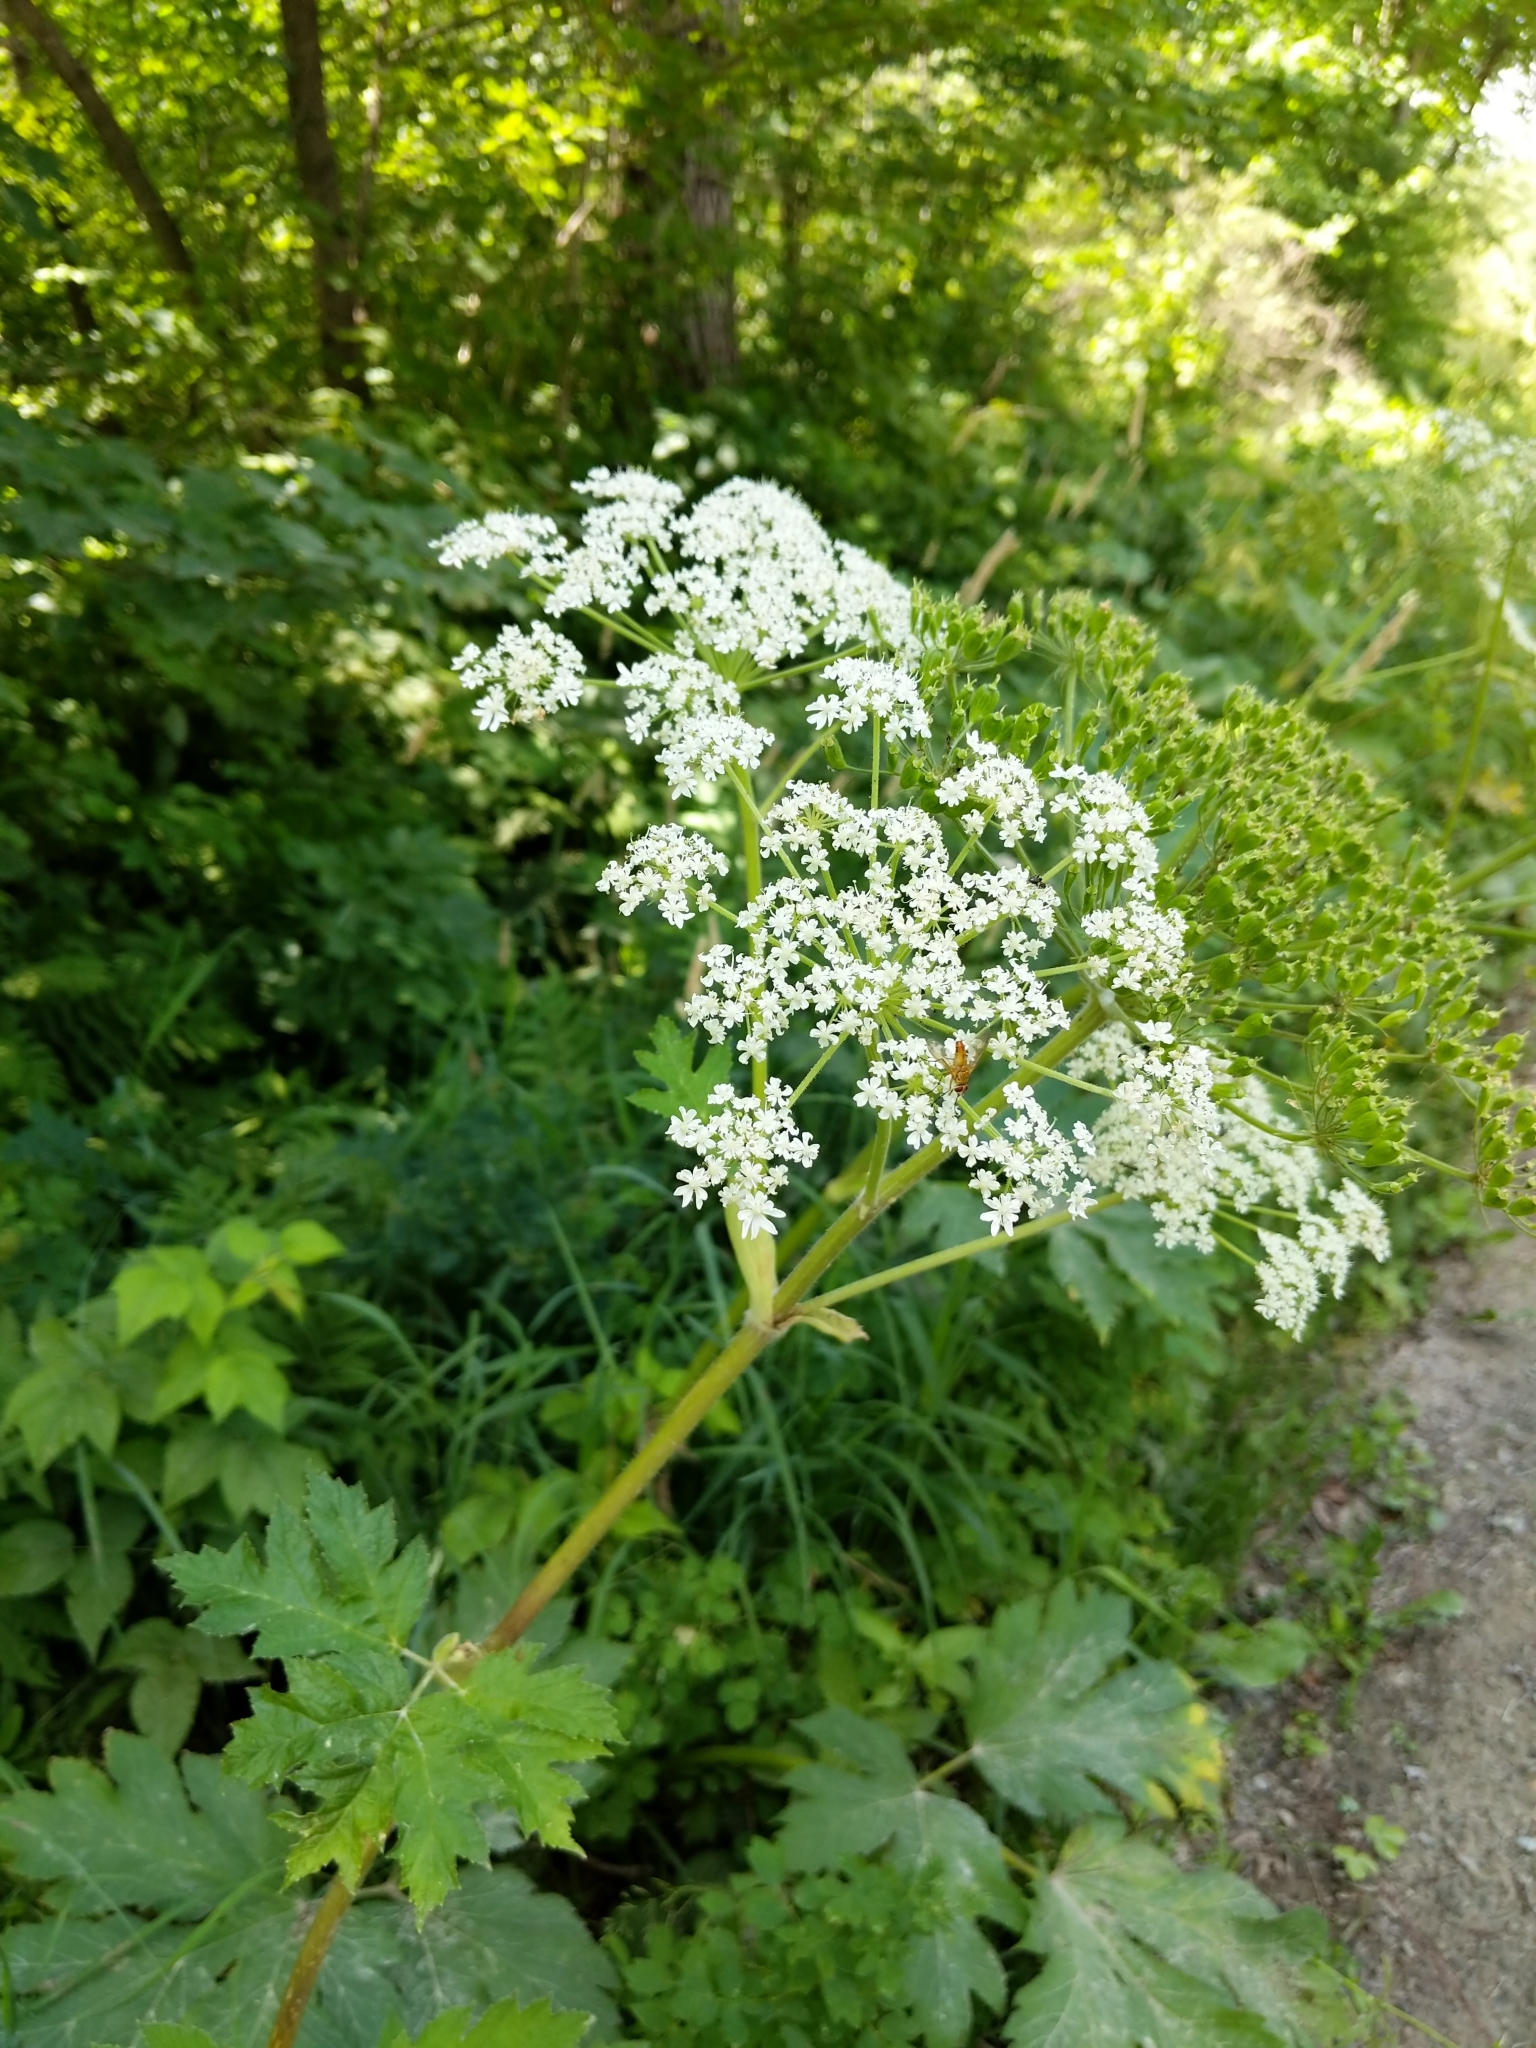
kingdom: Plantae
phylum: Tracheophyta
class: Magnoliopsida
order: Apiales
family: Apiaceae
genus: Heracleum
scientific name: Heracleum maximum
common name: American cow parsnip
